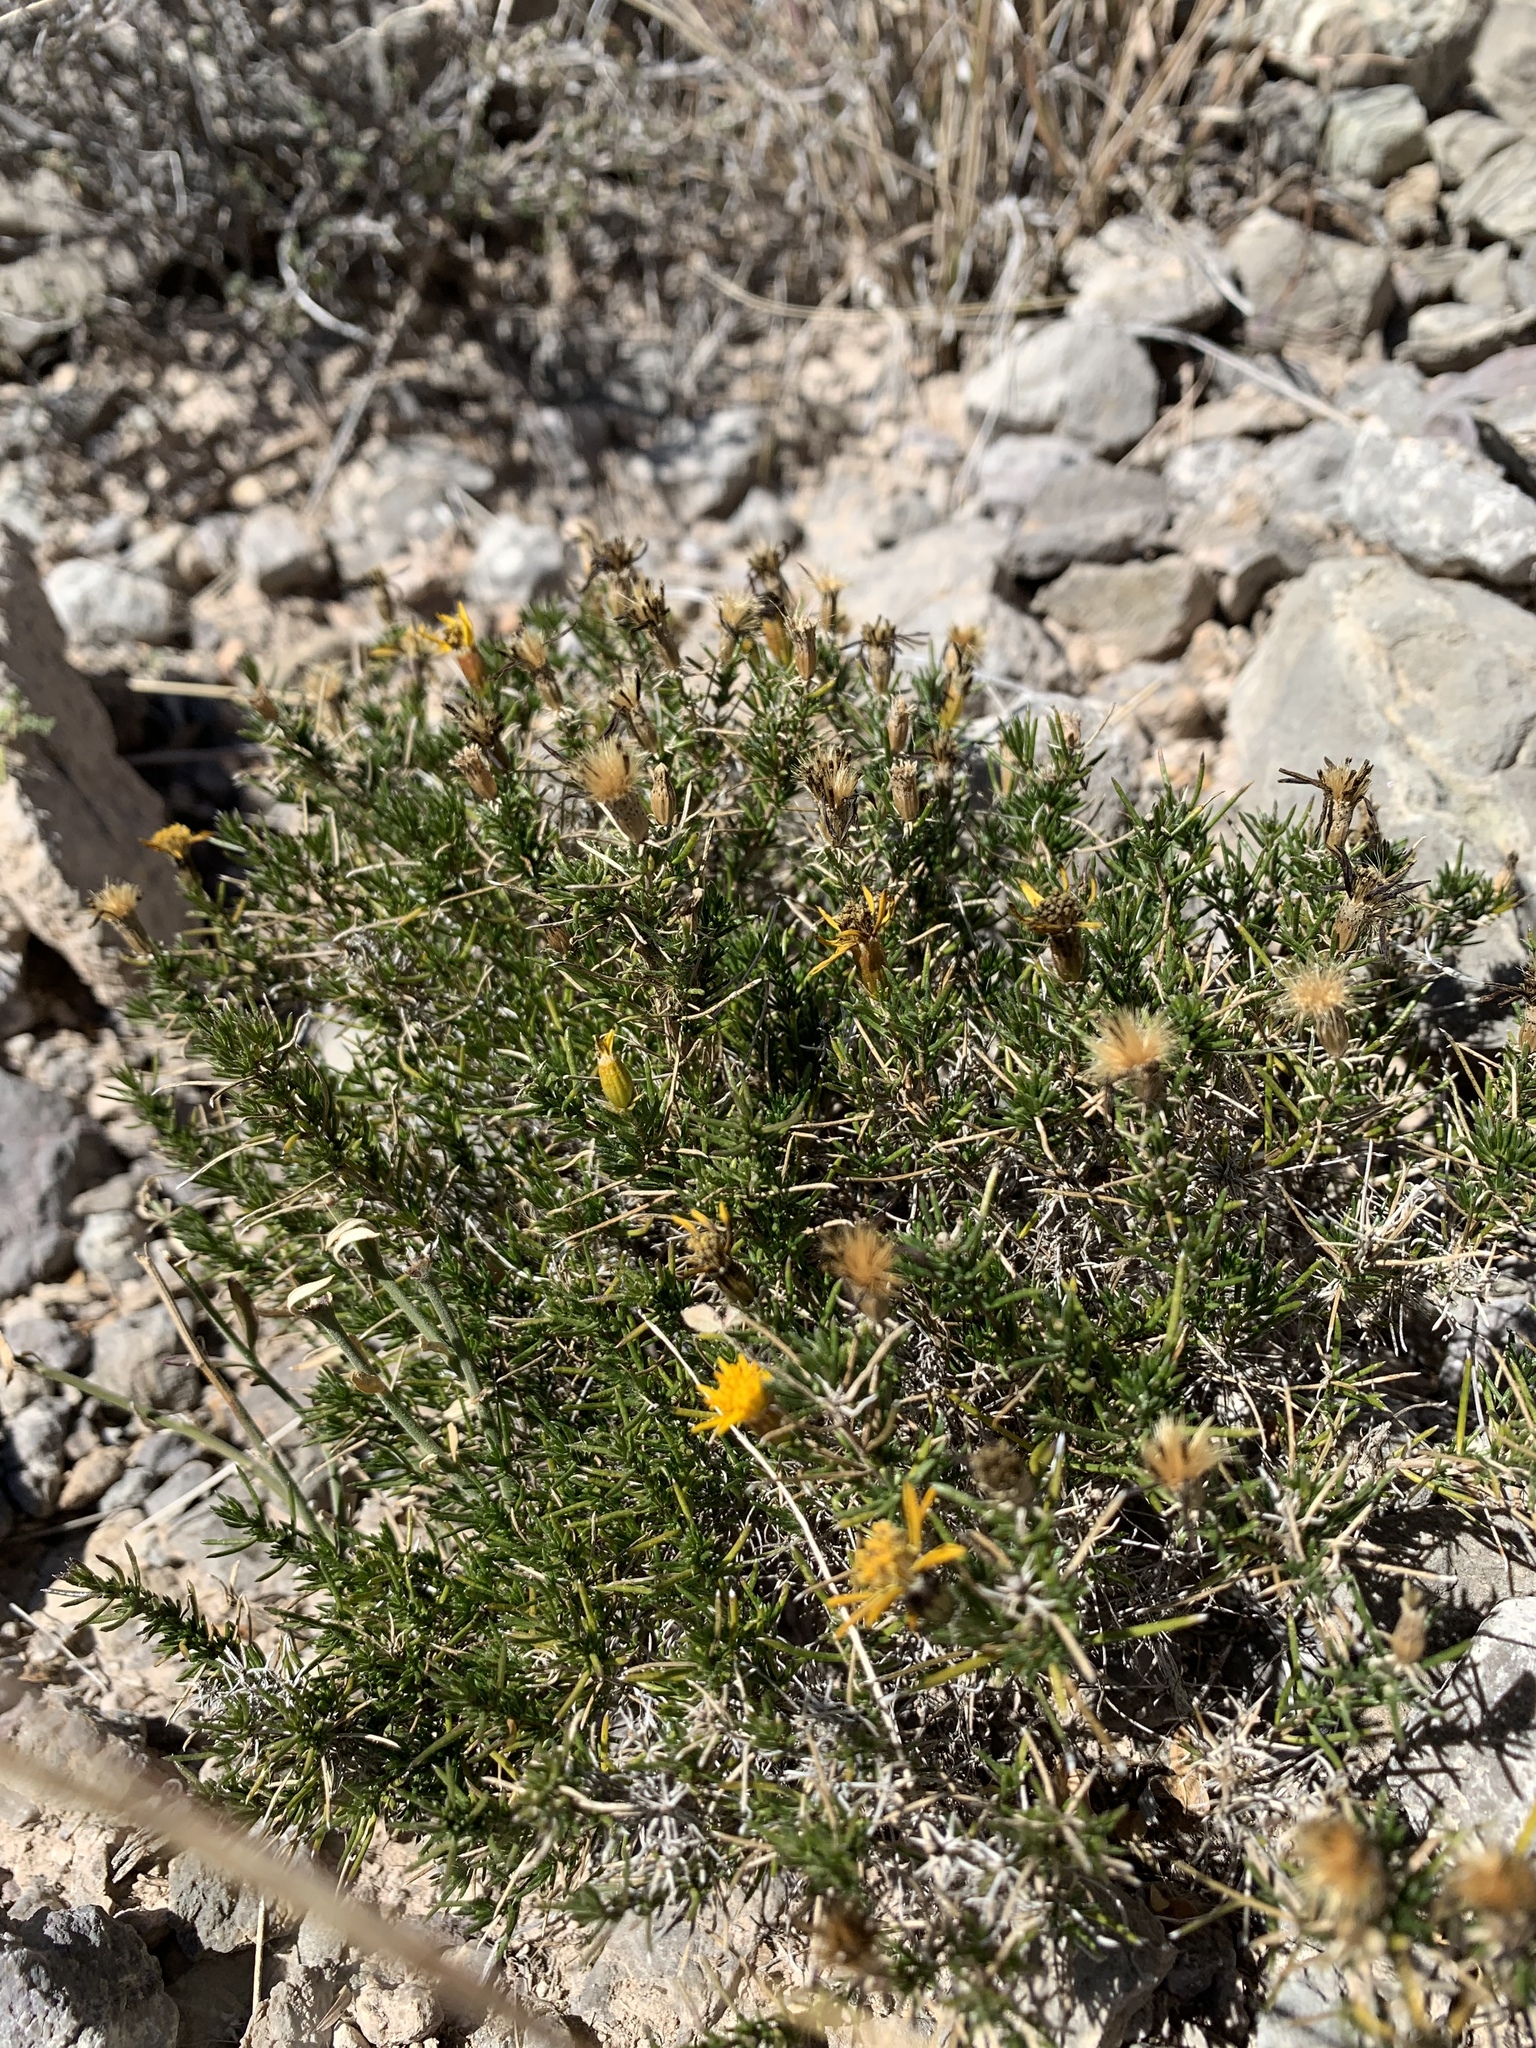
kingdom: Plantae
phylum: Tracheophyta
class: Magnoliopsida
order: Asterales
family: Asteraceae
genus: Thymophylla
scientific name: Thymophylla acerosa
